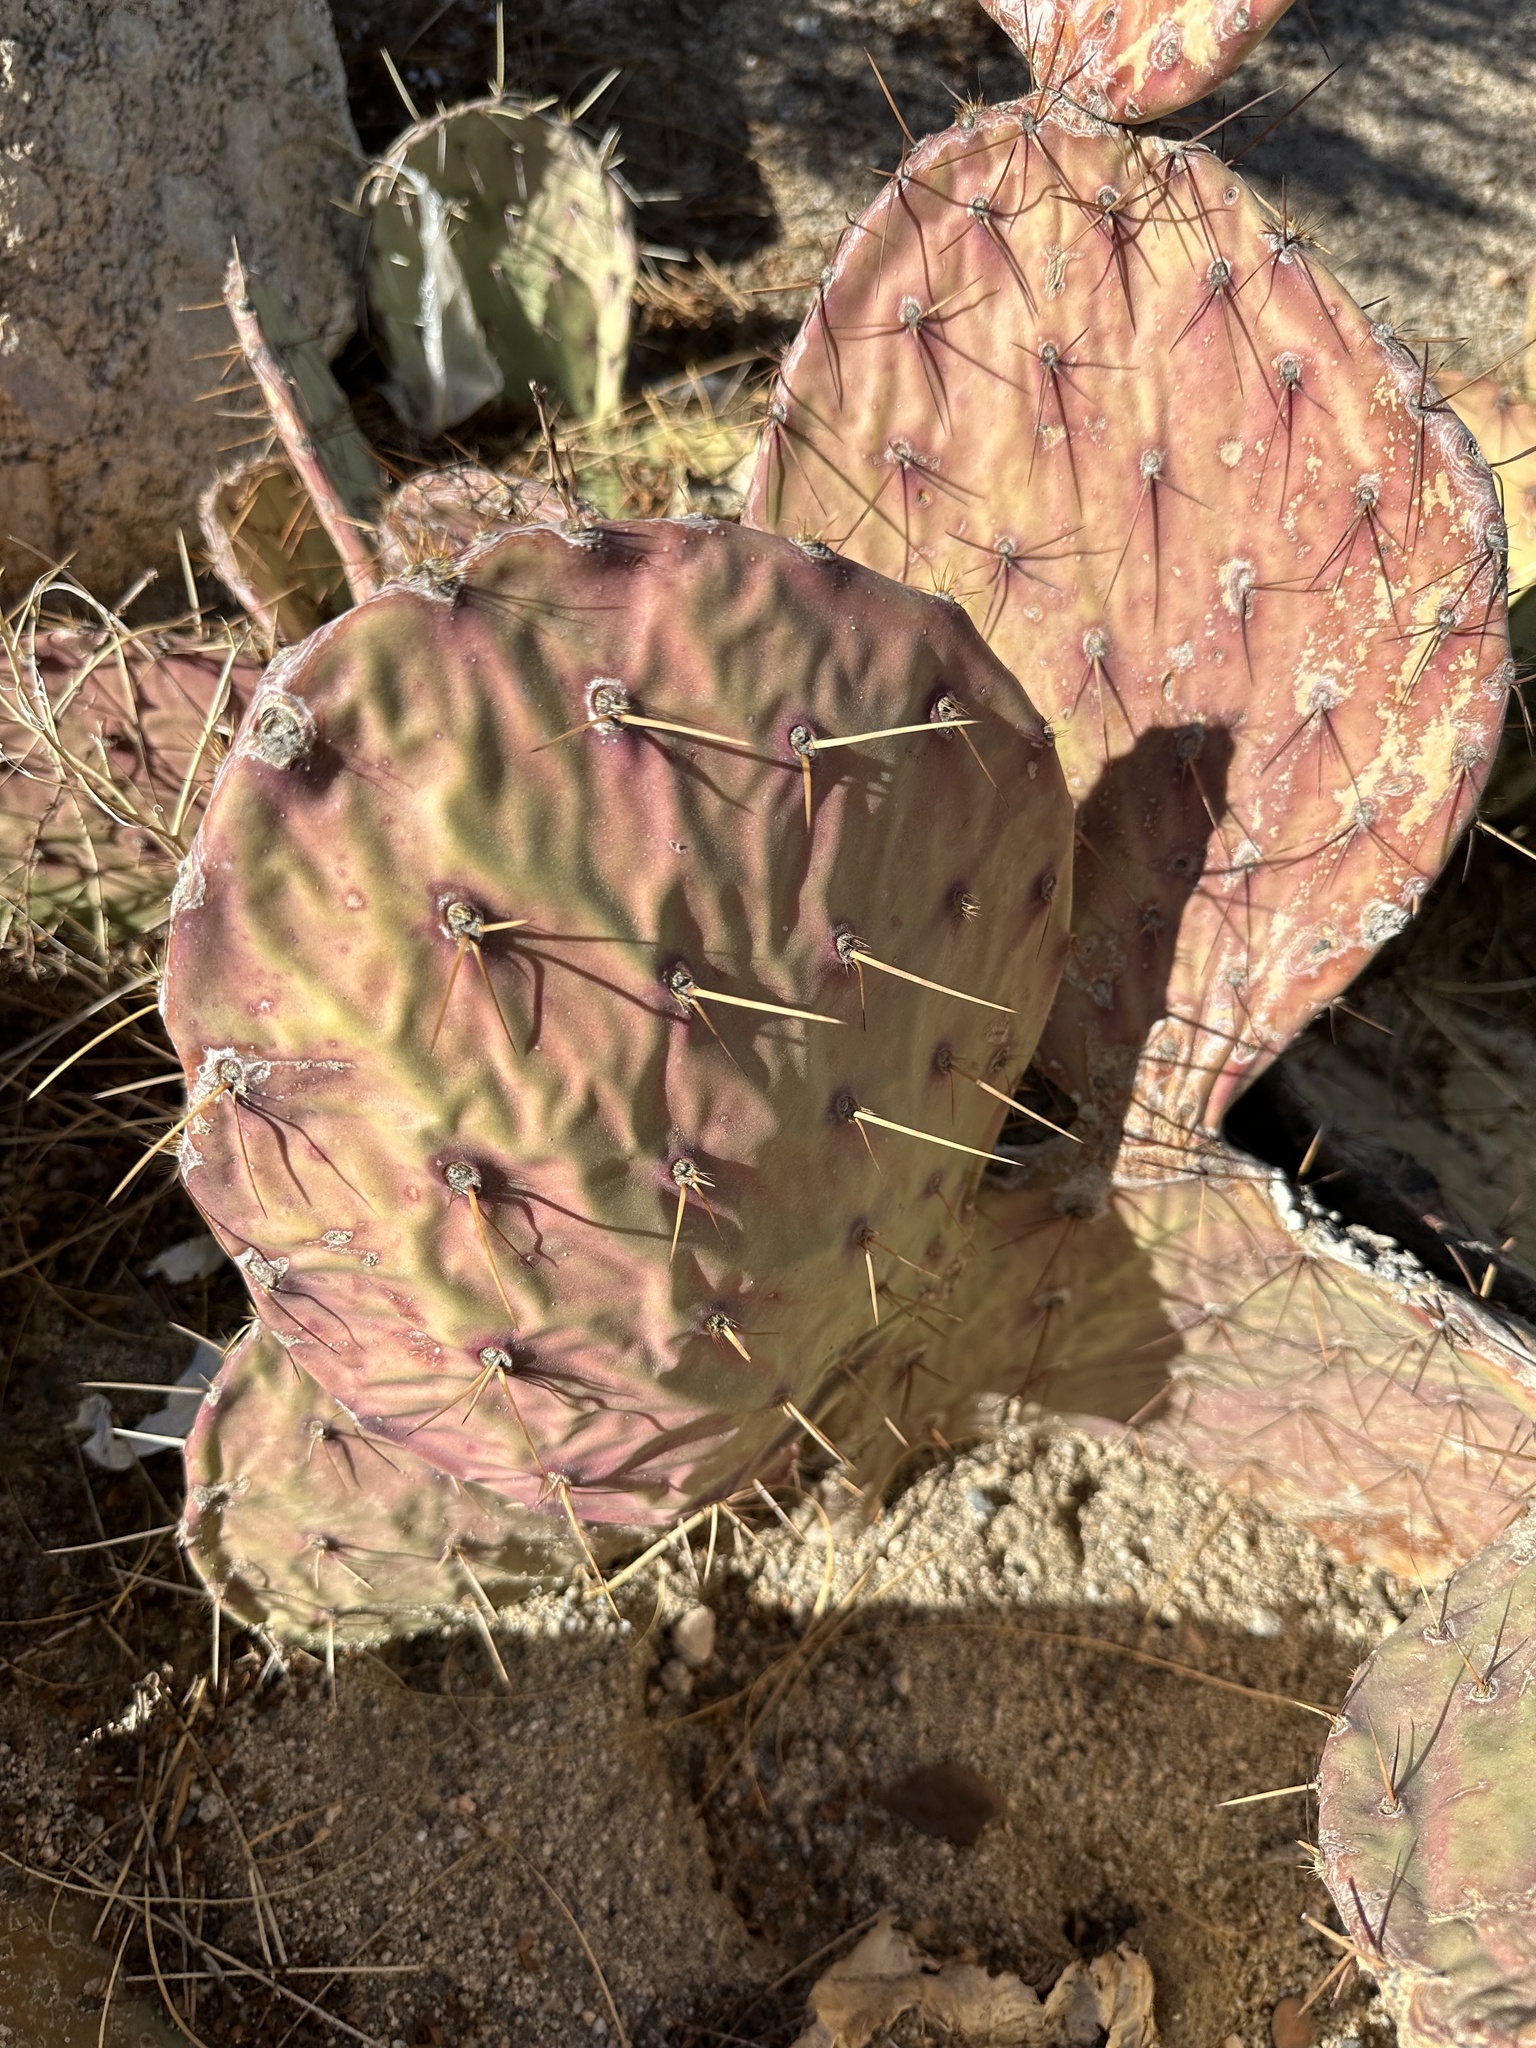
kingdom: Plantae
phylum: Tracheophyta
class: Magnoliopsida
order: Caryophyllales
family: Cactaceae
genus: Opuntia
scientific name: Opuntia phaeacantha
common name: New mexico prickly-pear
